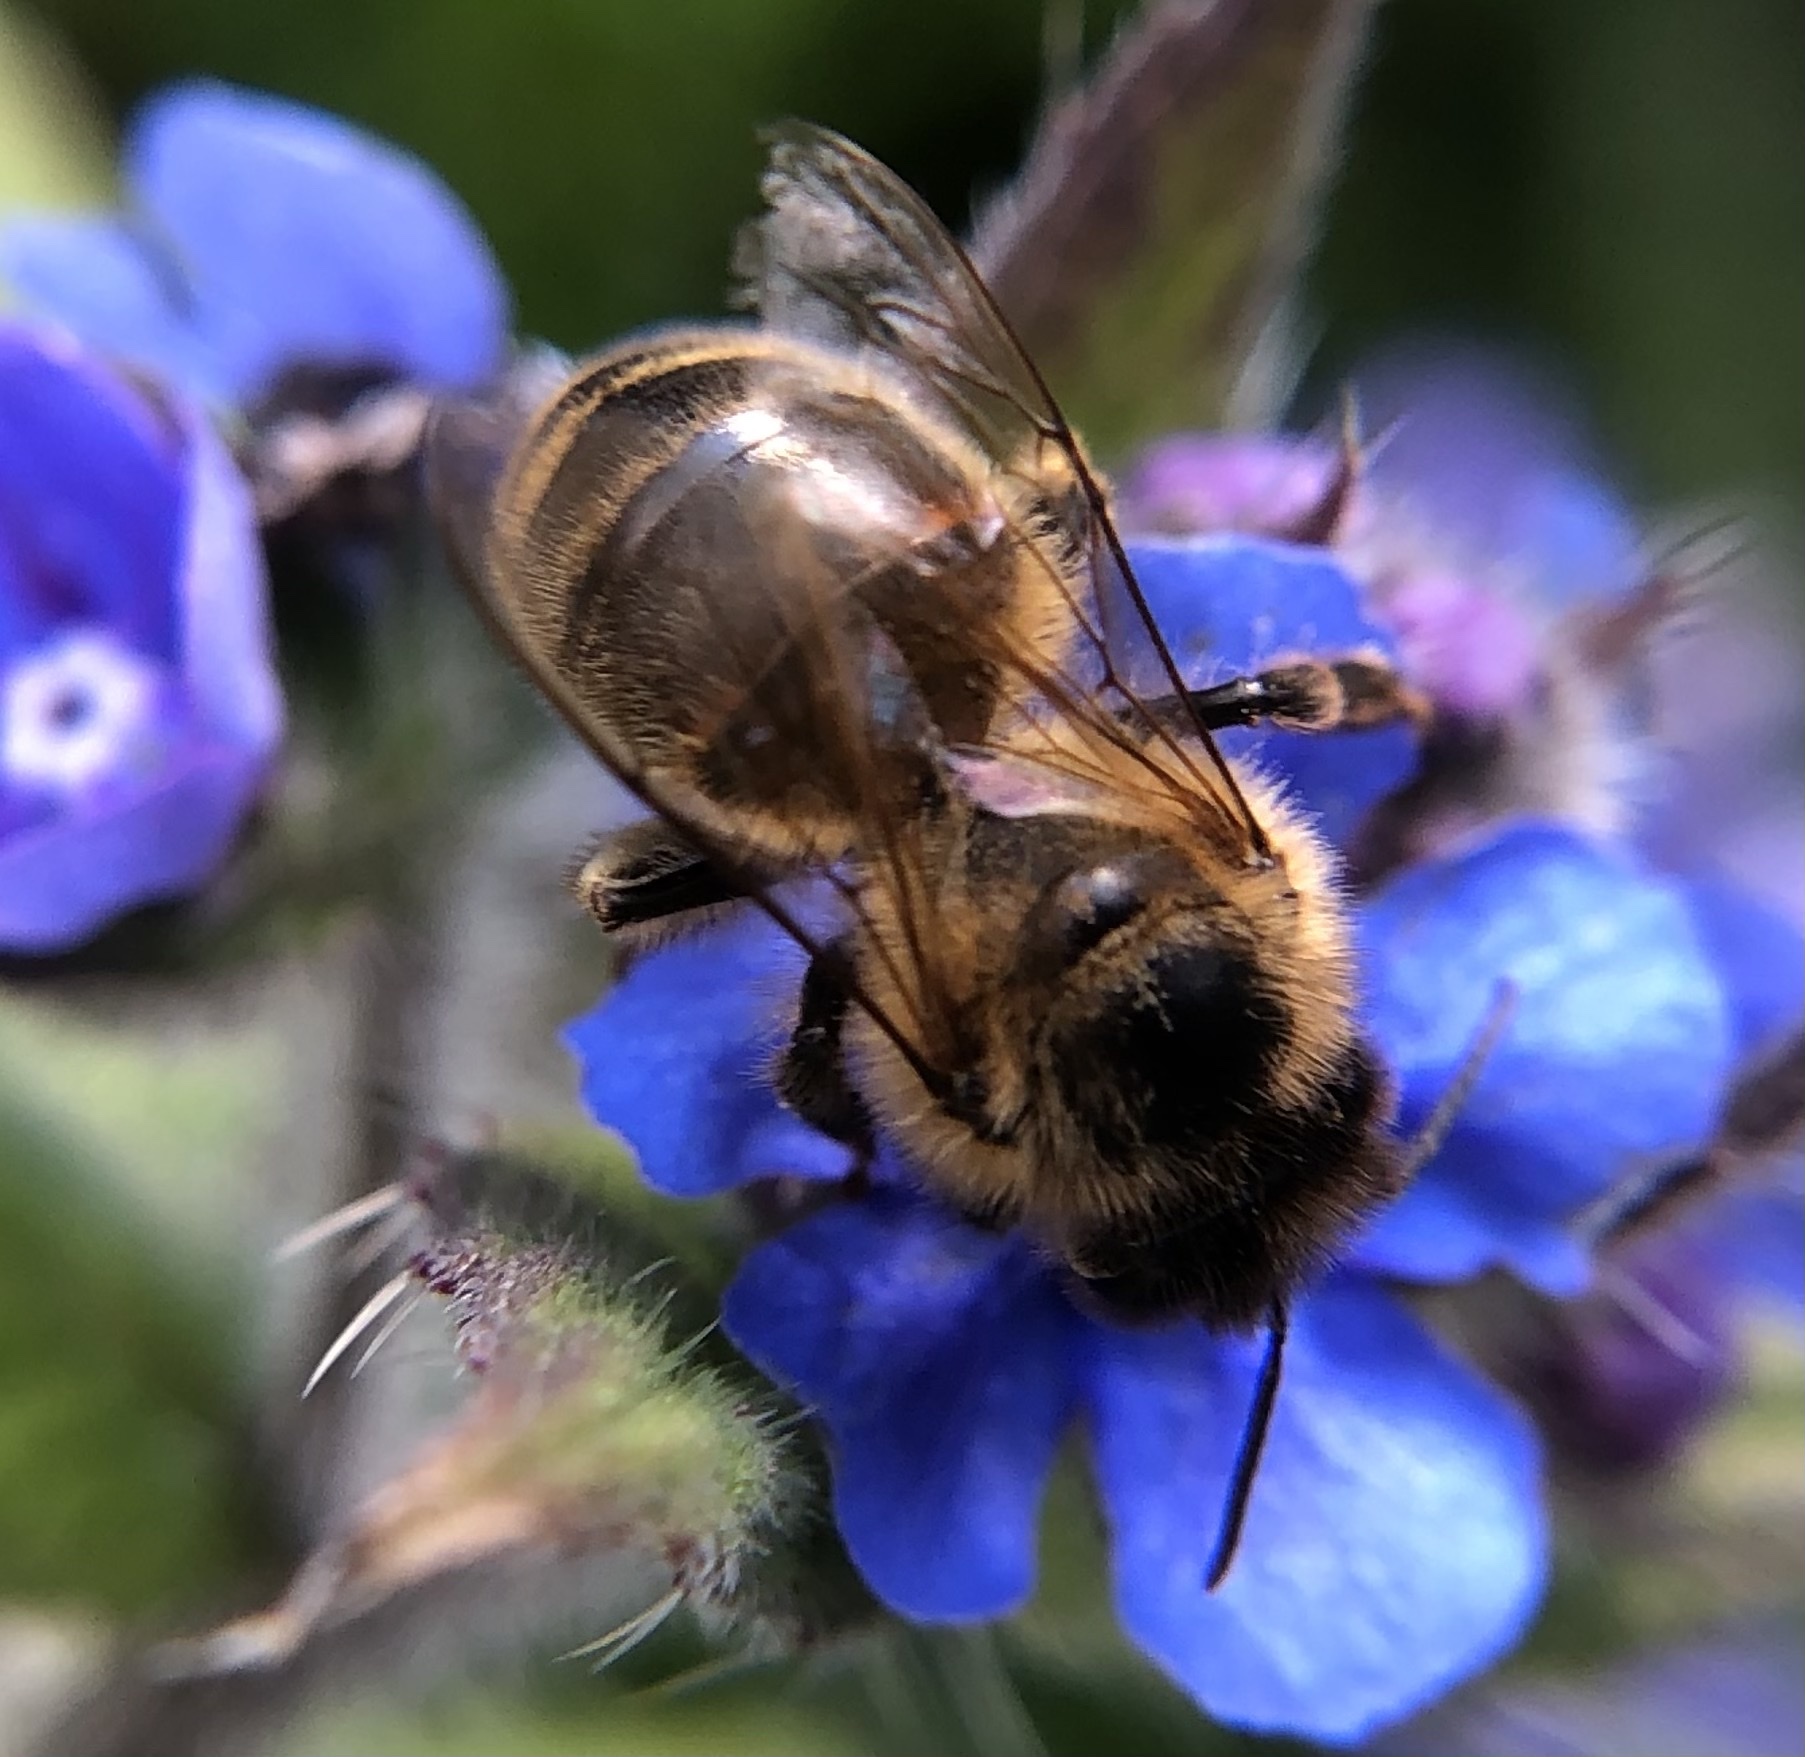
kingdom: Animalia
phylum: Arthropoda
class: Insecta
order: Hymenoptera
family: Apidae
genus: Apis
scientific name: Apis mellifera
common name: Honey bee
